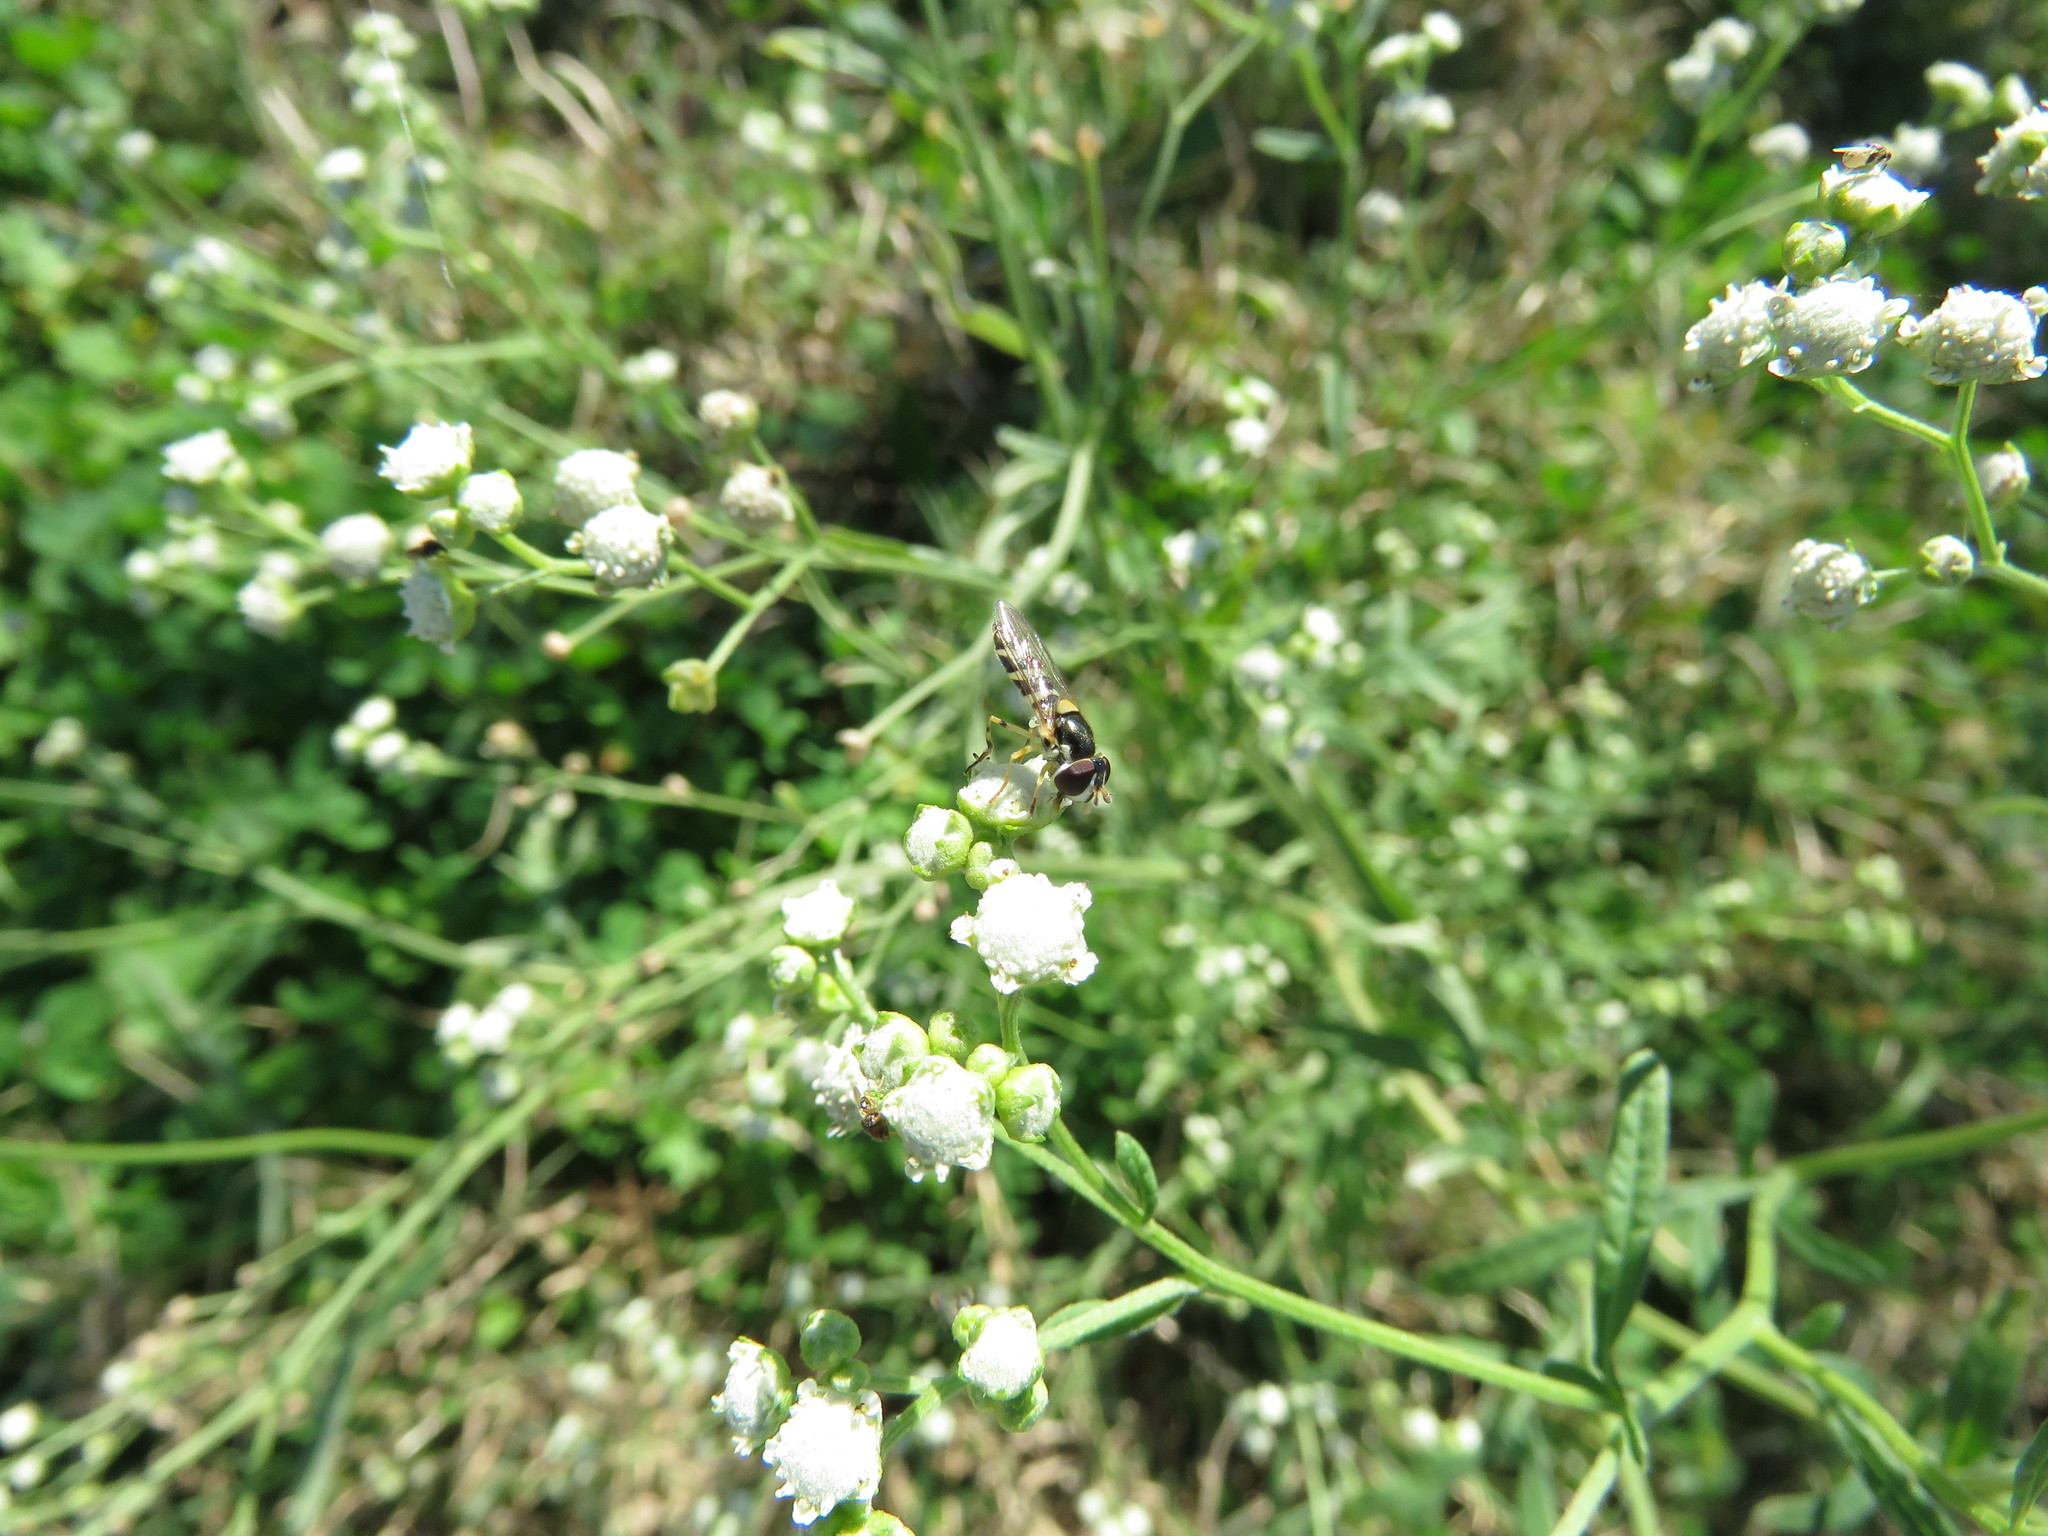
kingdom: Plantae
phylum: Tracheophyta
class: Magnoliopsida
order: Asterales
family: Asteraceae
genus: Parthenium
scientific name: Parthenium hysterophorus
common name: Santa maria feverfew
